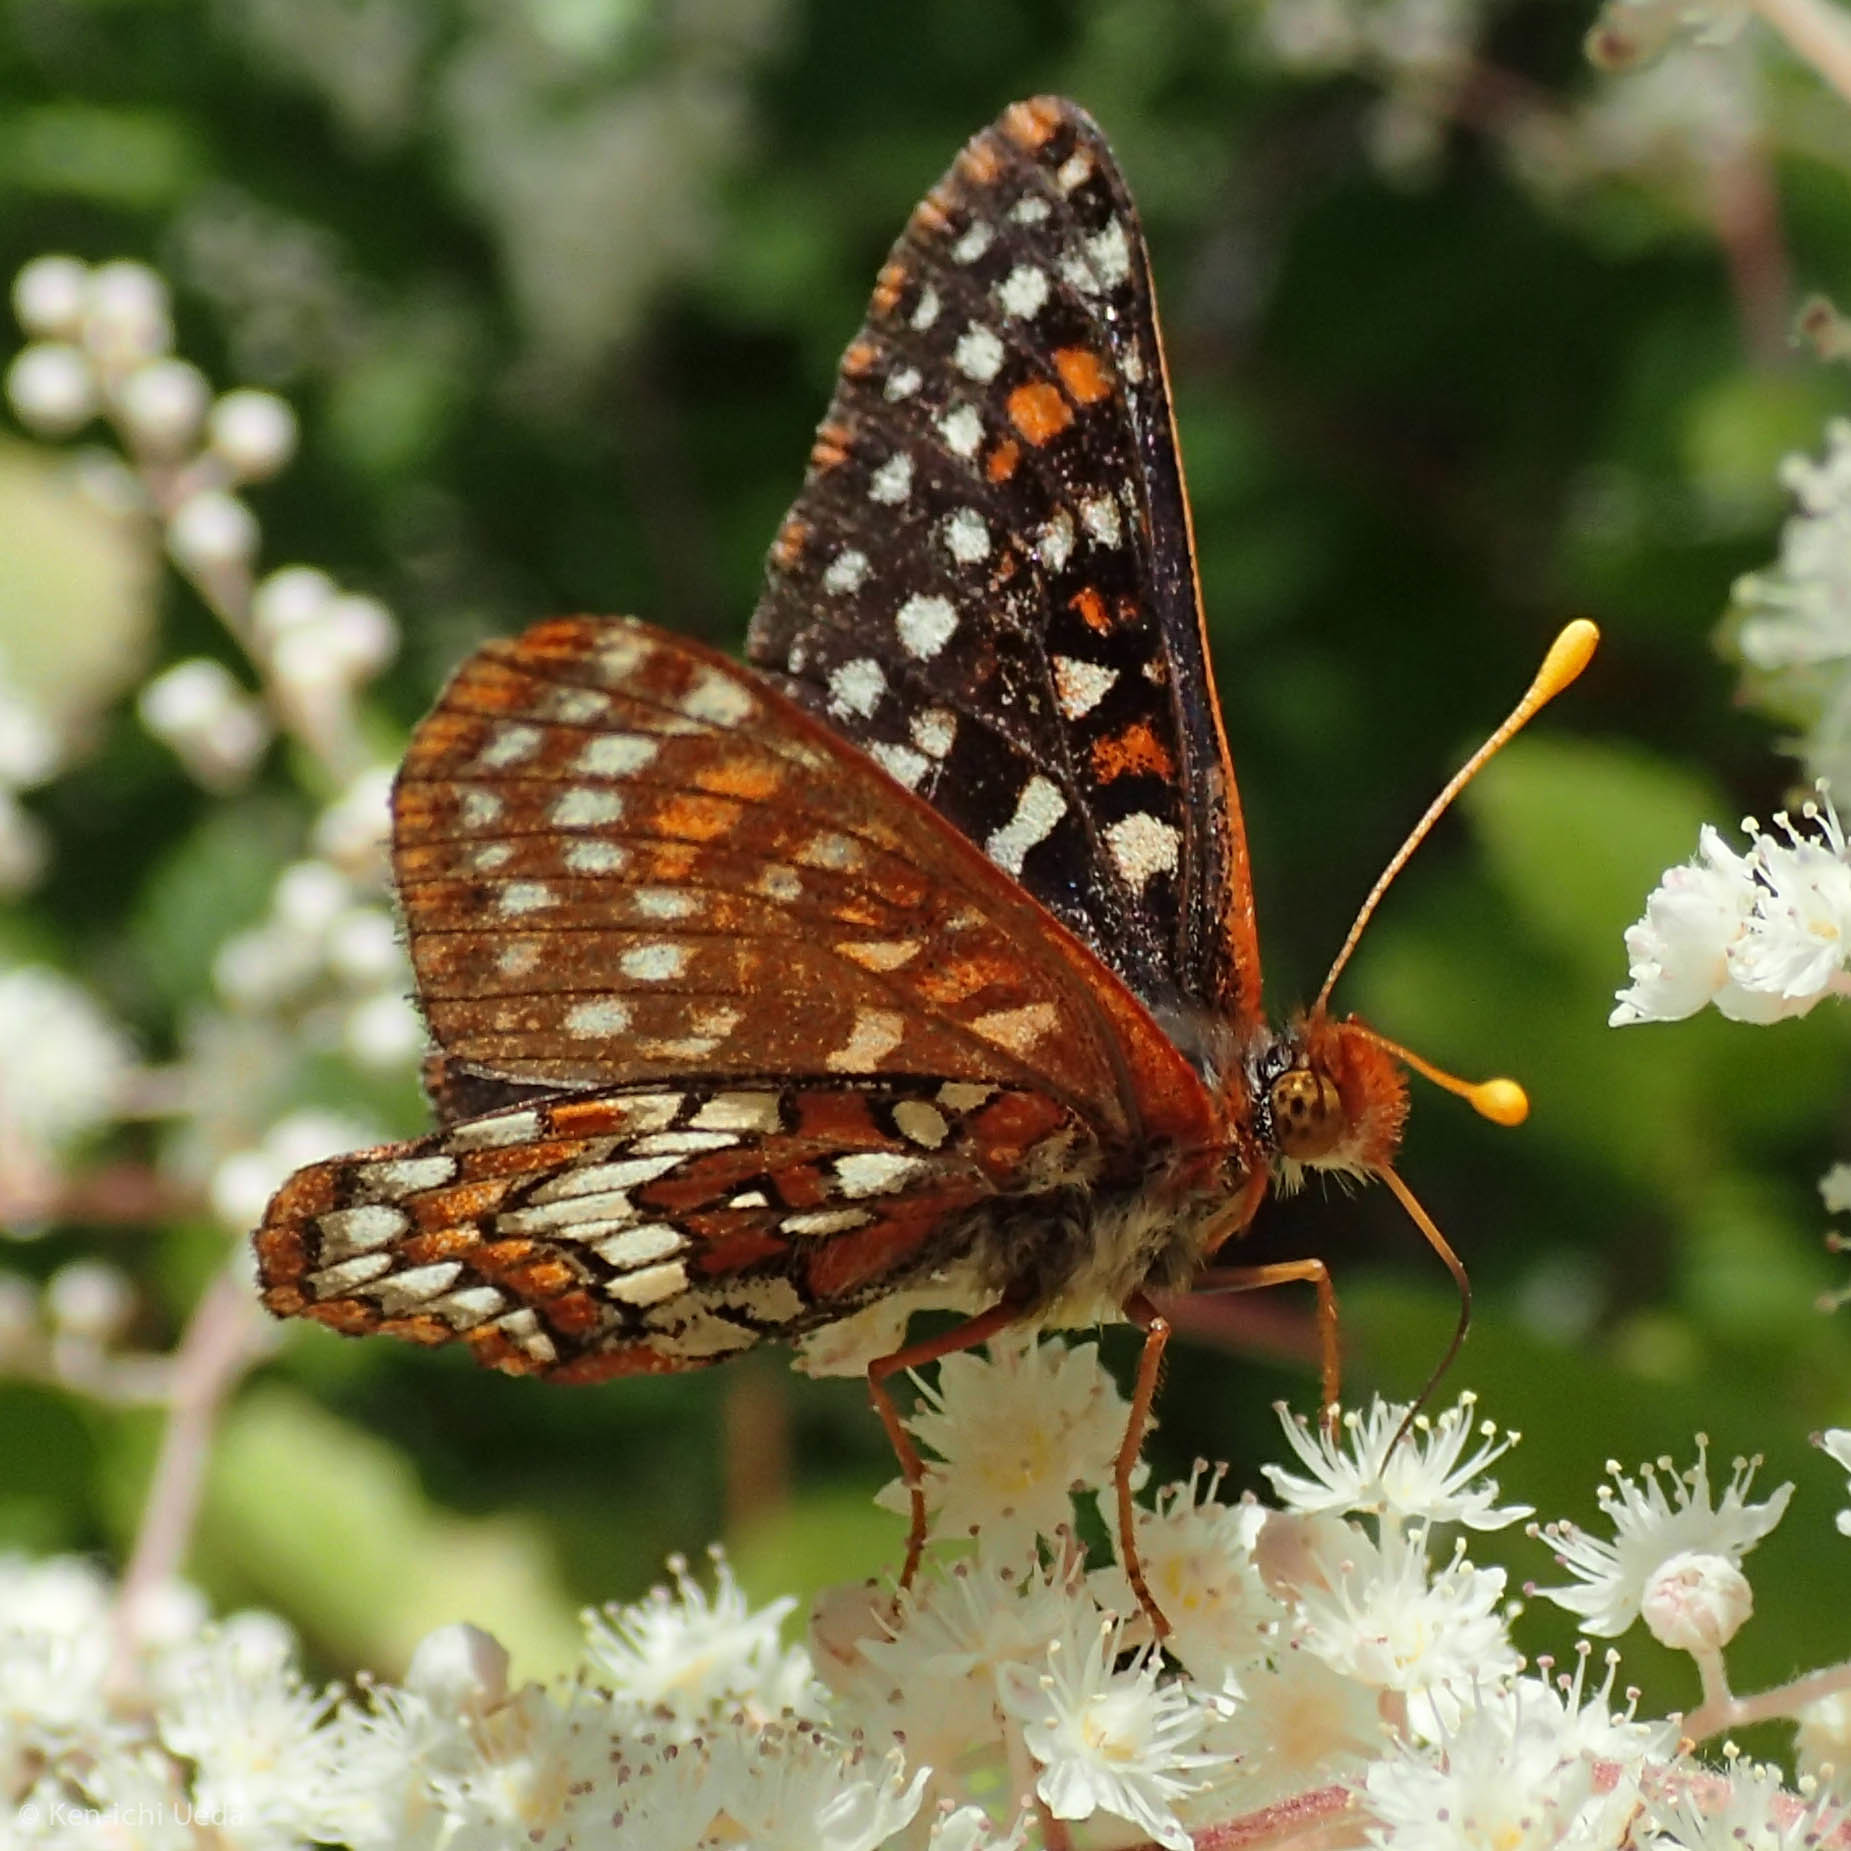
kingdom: Animalia
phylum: Arthropoda
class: Insecta
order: Lepidoptera
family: Nymphalidae
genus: Occidryas
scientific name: Occidryas chalcedona
